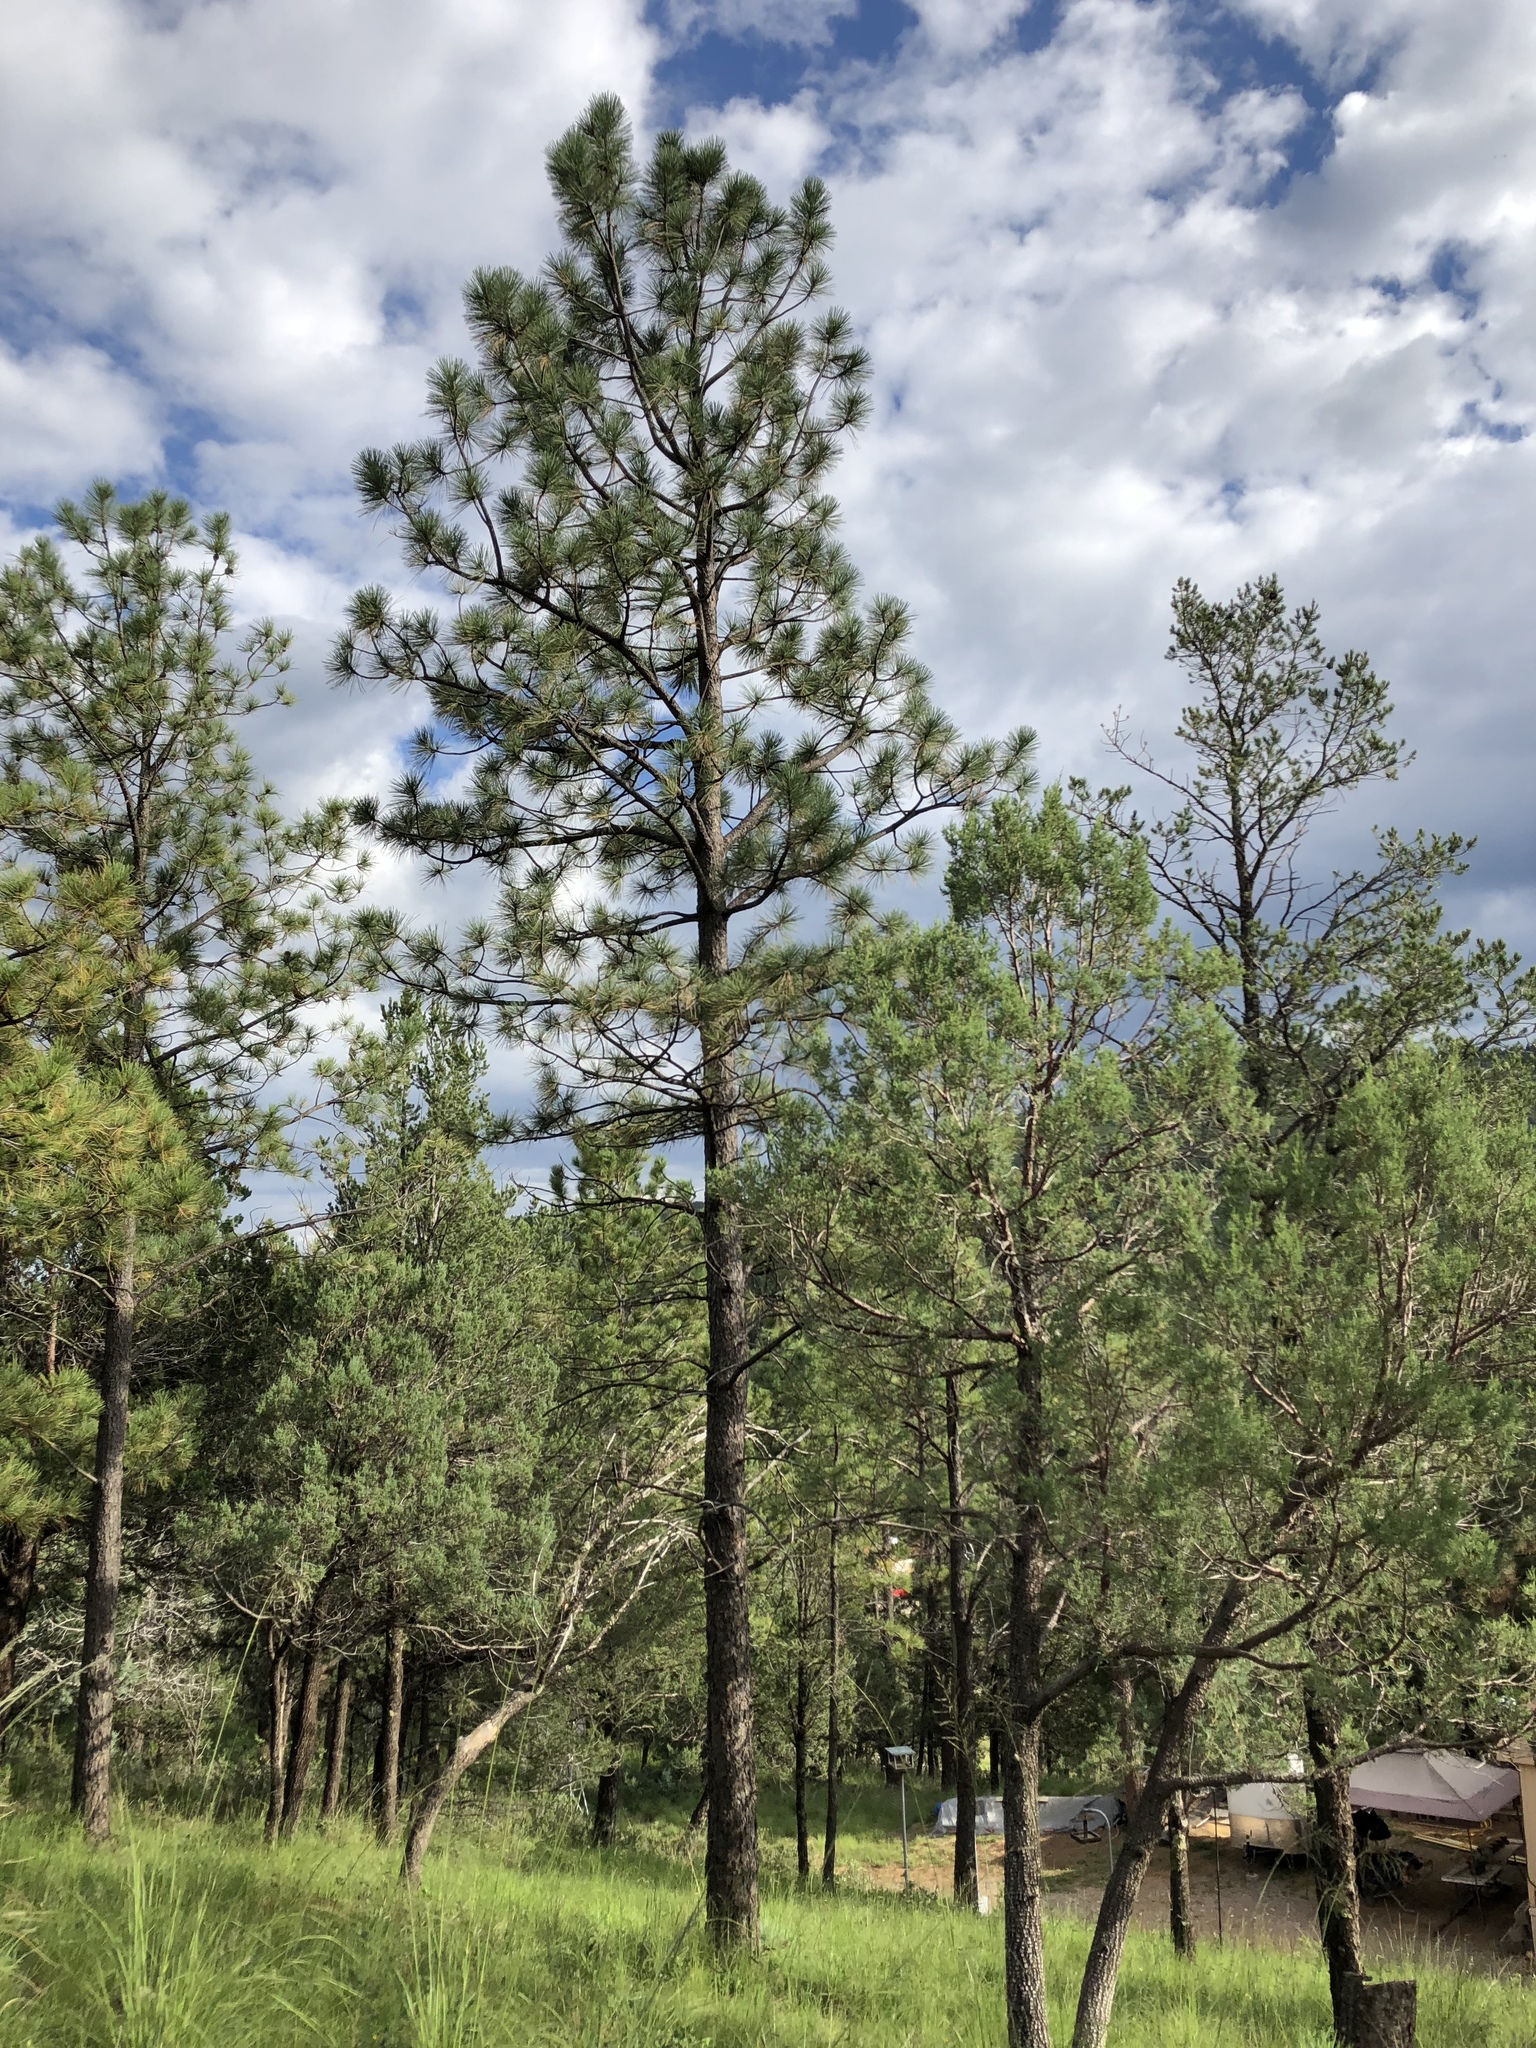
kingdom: Plantae
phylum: Tracheophyta
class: Pinopsida
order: Pinales
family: Pinaceae
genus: Pinus
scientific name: Pinus ponderosa
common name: Western yellow-pine
